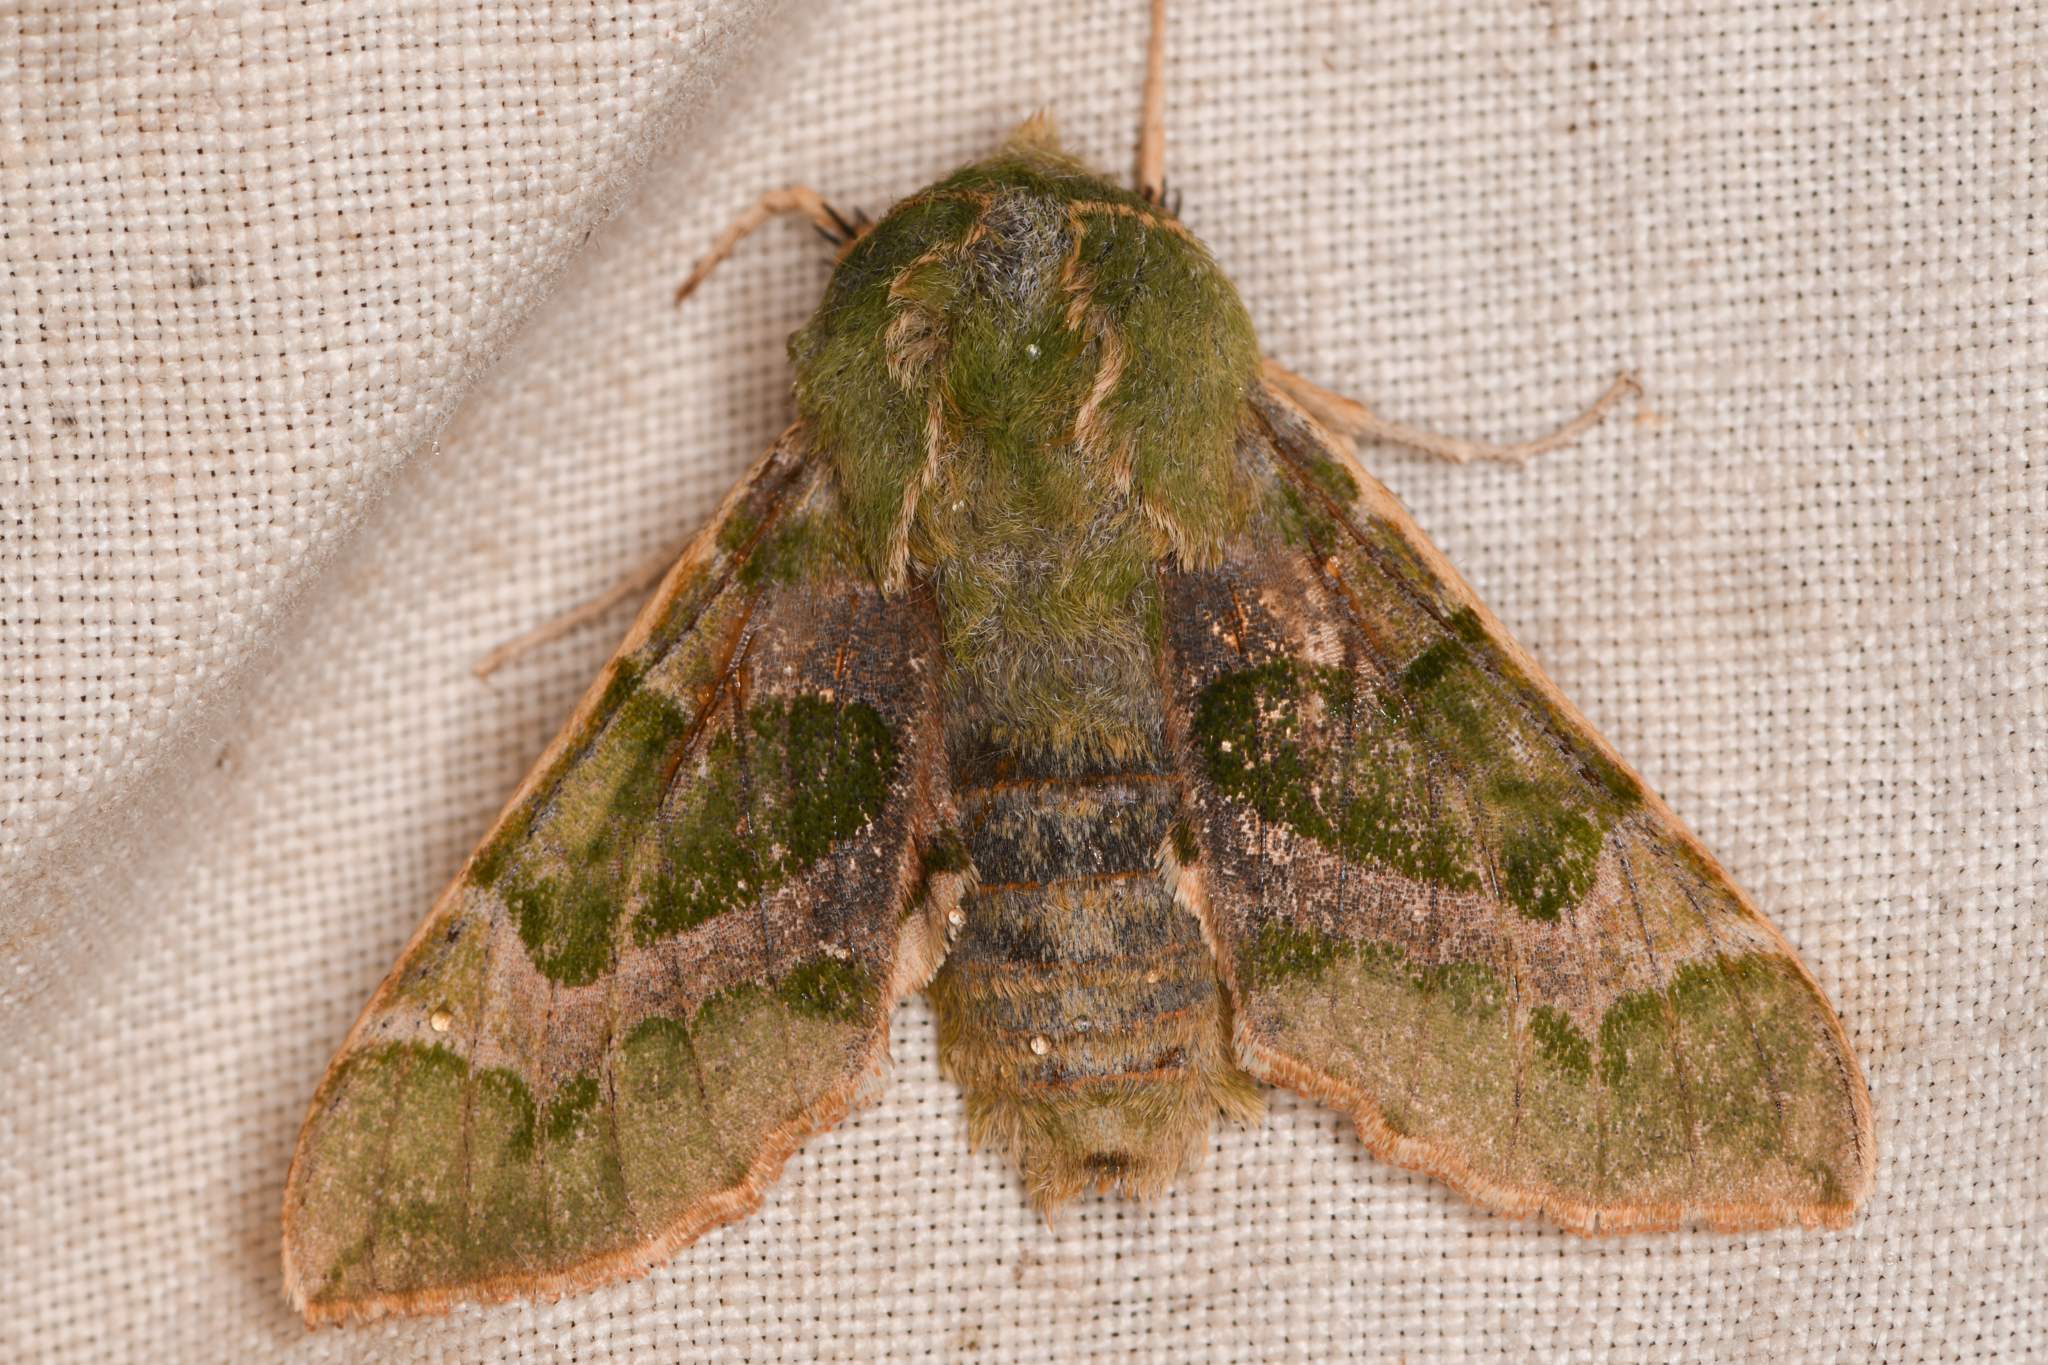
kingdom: Animalia
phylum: Arthropoda
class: Insecta
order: Lepidoptera
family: Sphingidae
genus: Proserpinus
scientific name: Proserpinus lucidus
